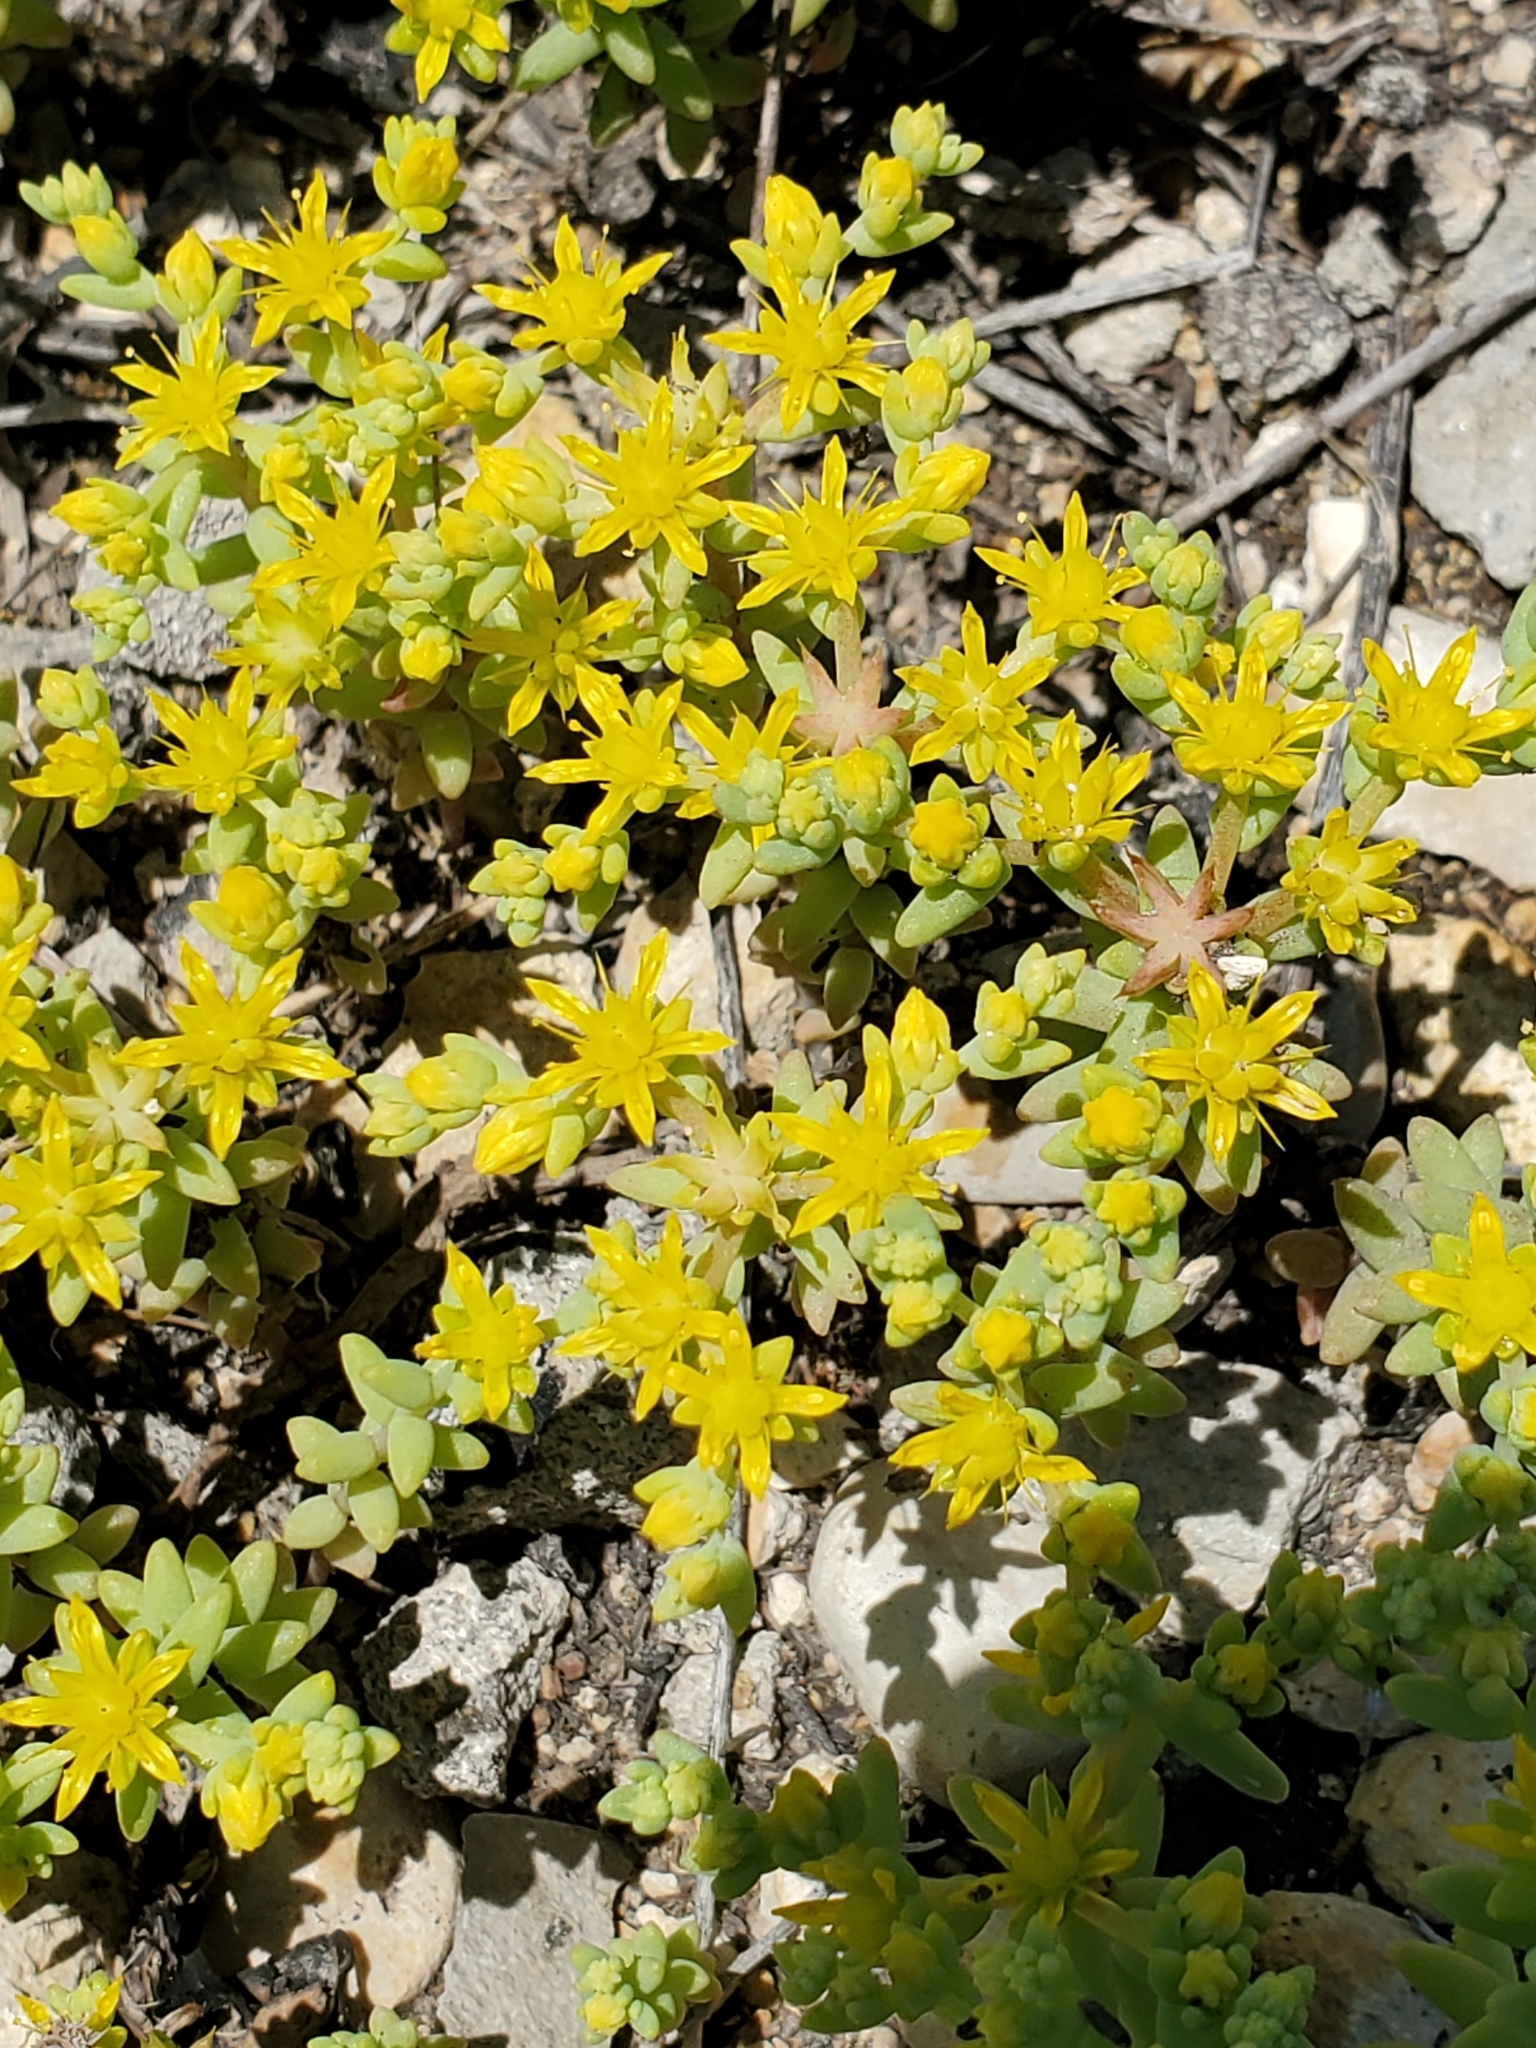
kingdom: Plantae
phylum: Tracheophyta
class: Magnoliopsida
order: Saxifragales
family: Crassulaceae
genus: Sedum
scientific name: Sedum nuttallii
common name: Yellow stonecrop
